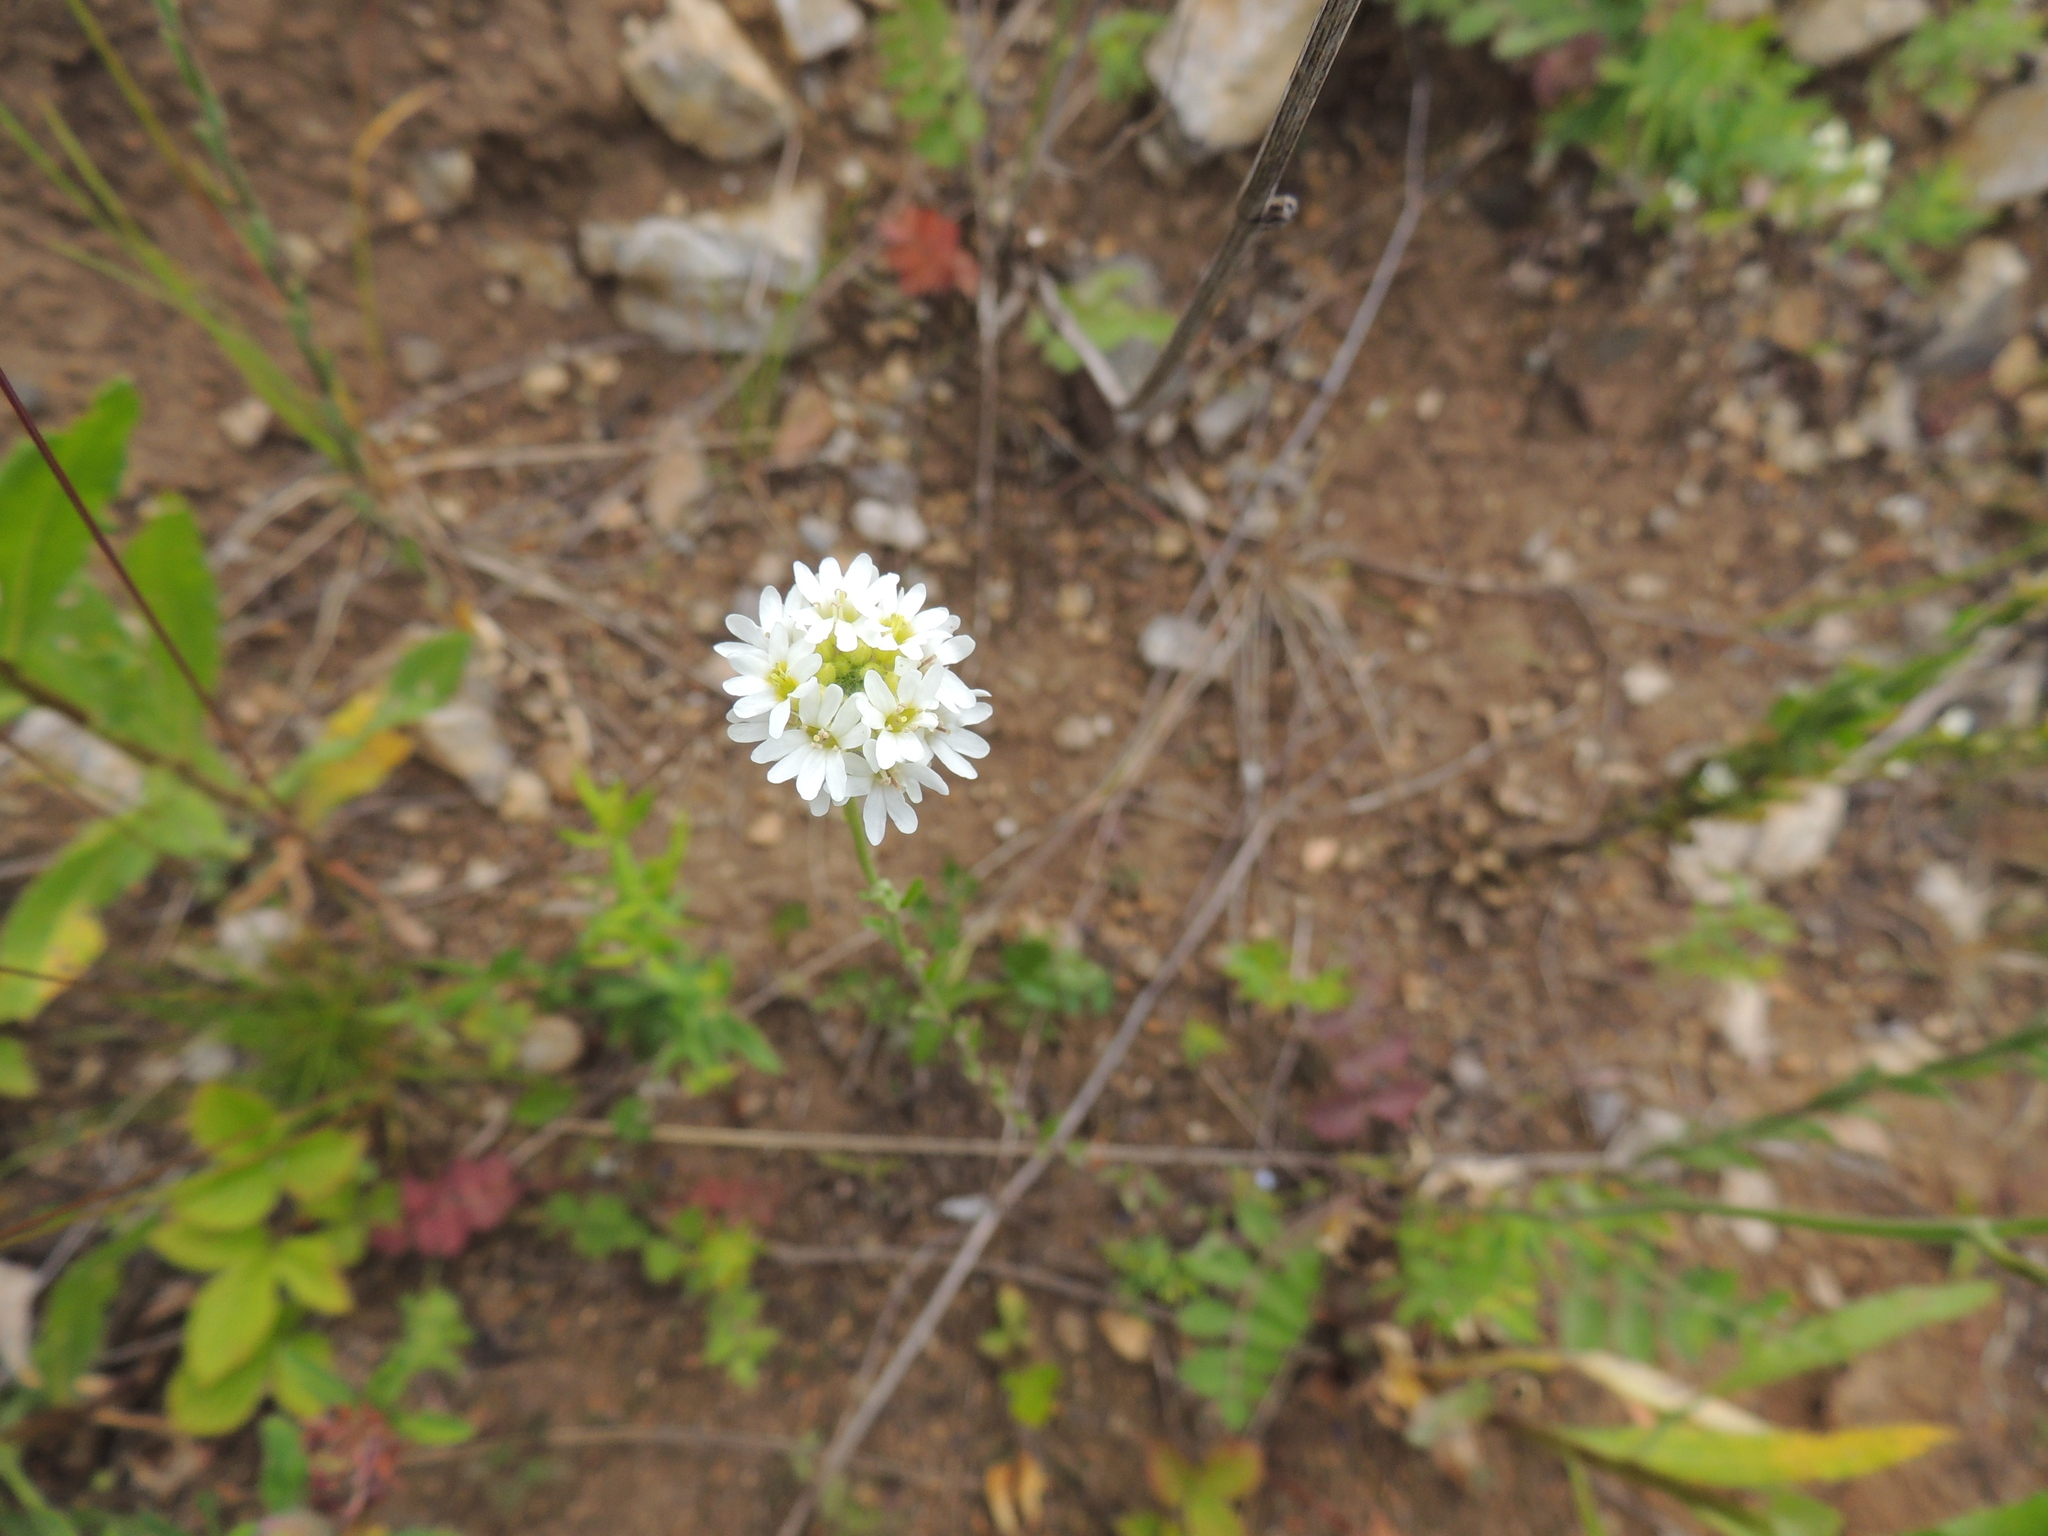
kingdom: Plantae
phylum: Tracheophyta
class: Magnoliopsida
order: Brassicales
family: Brassicaceae
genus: Berteroa
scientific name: Berteroa incana
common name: Hoary alison
